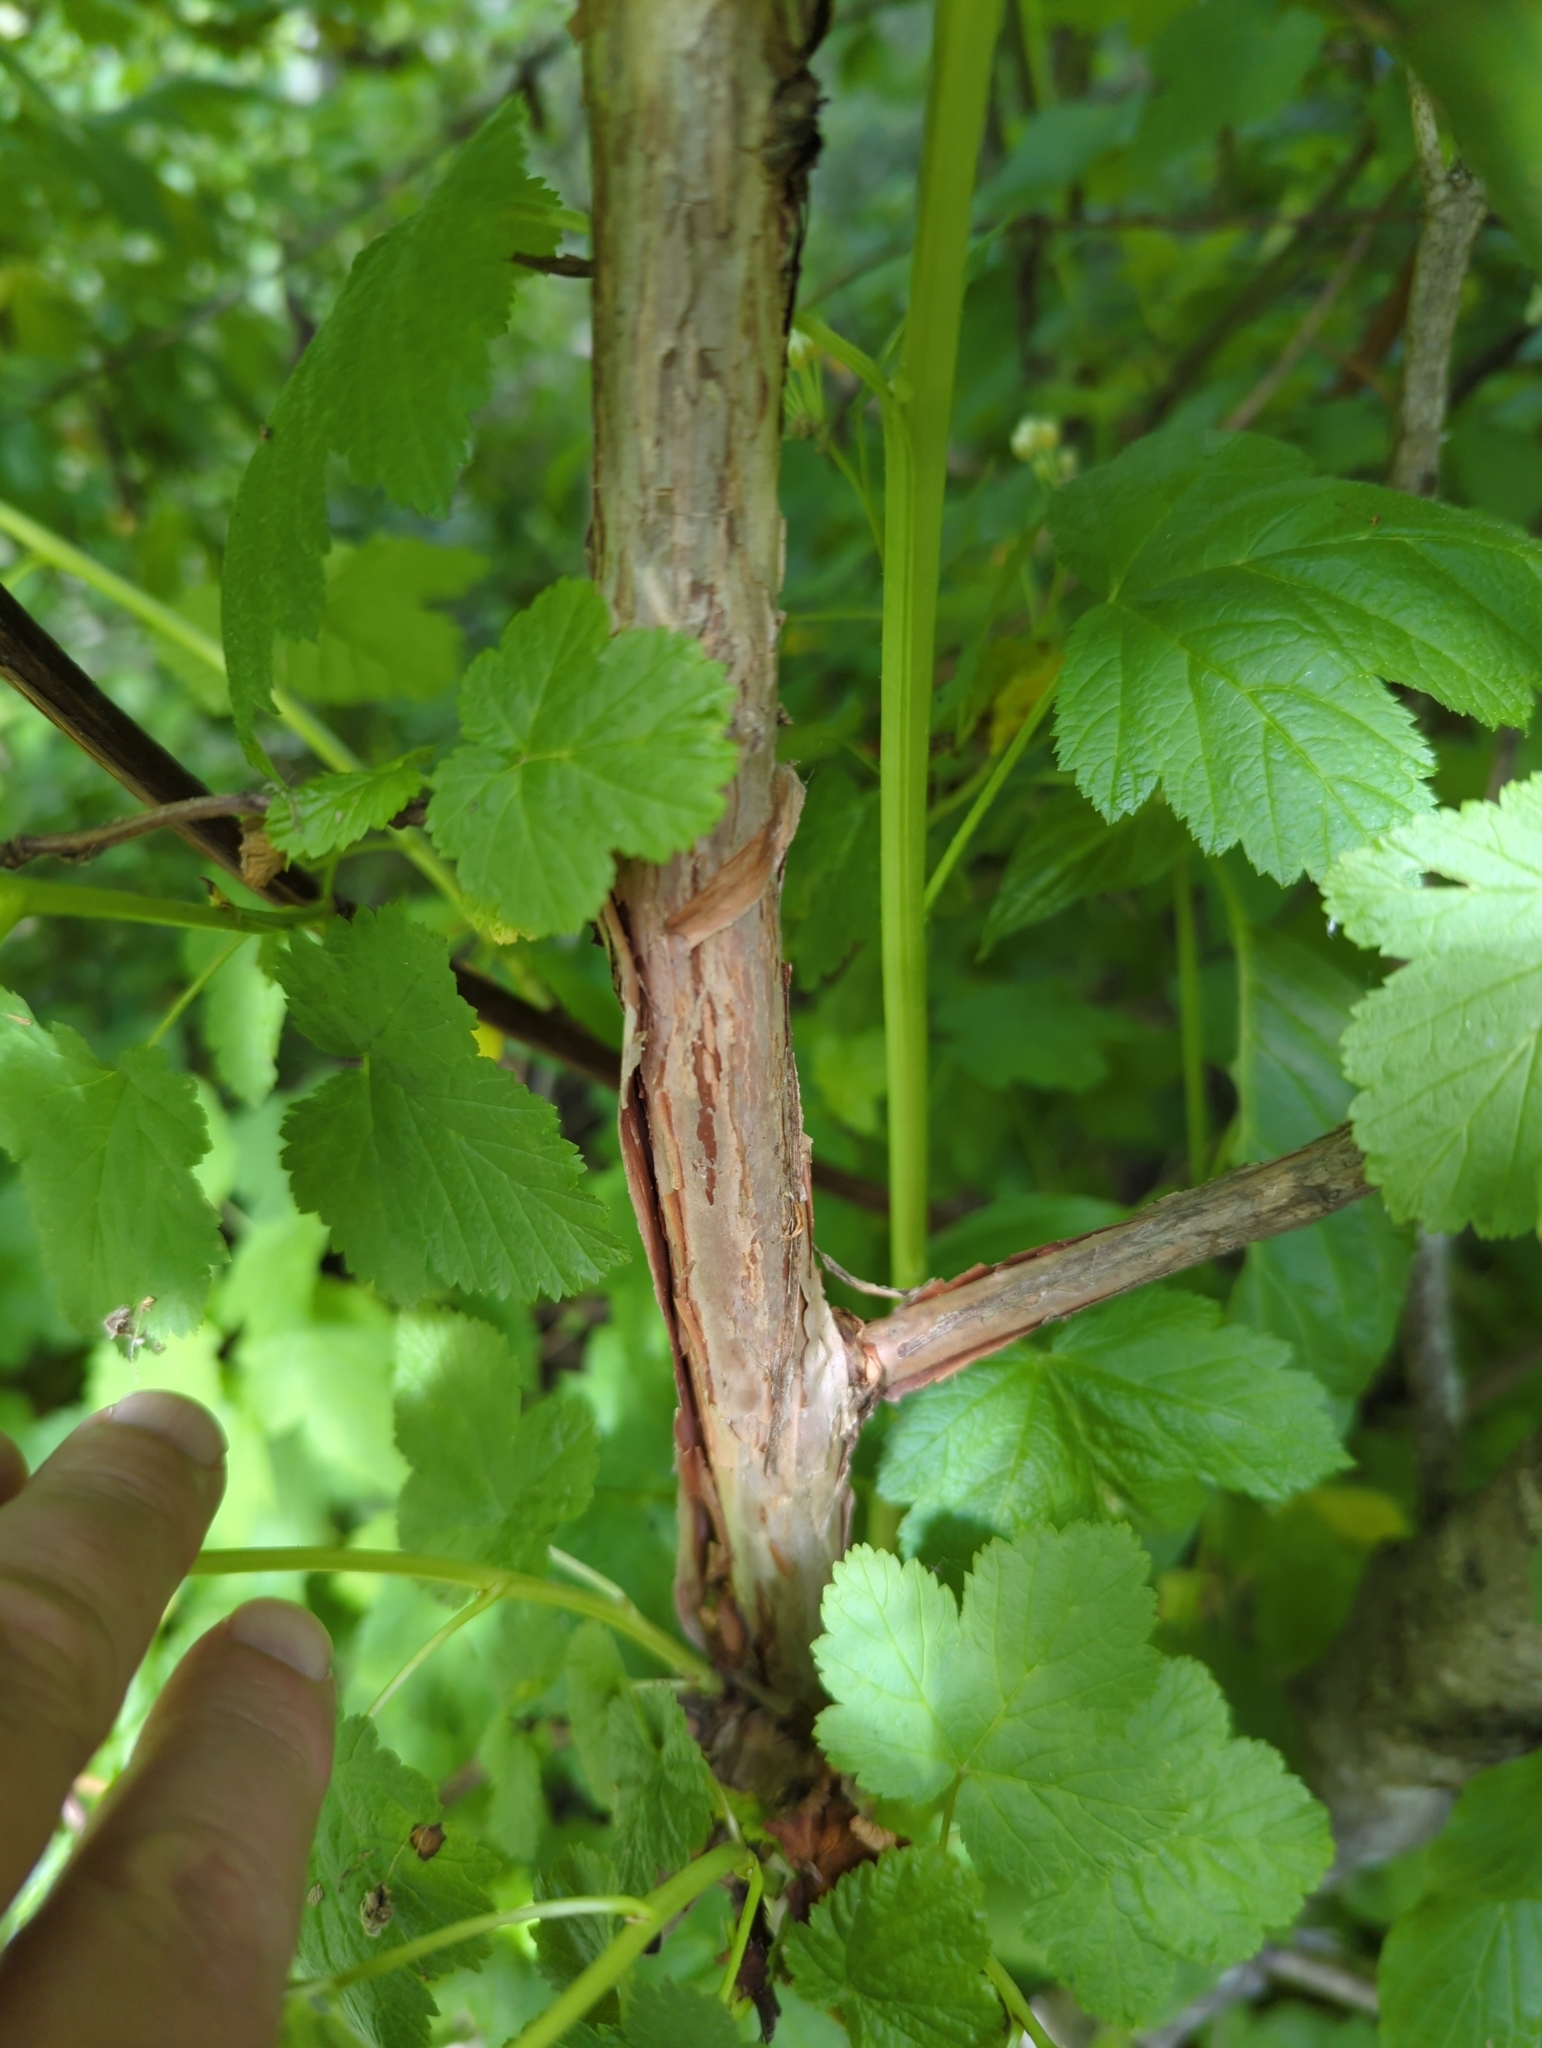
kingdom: Plantae
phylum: Tracheophyta
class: Magnoliopsida
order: Rosales
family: Rosaceae
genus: Physocarpus
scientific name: Physocarpus capitatus
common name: Pacific ninebark
